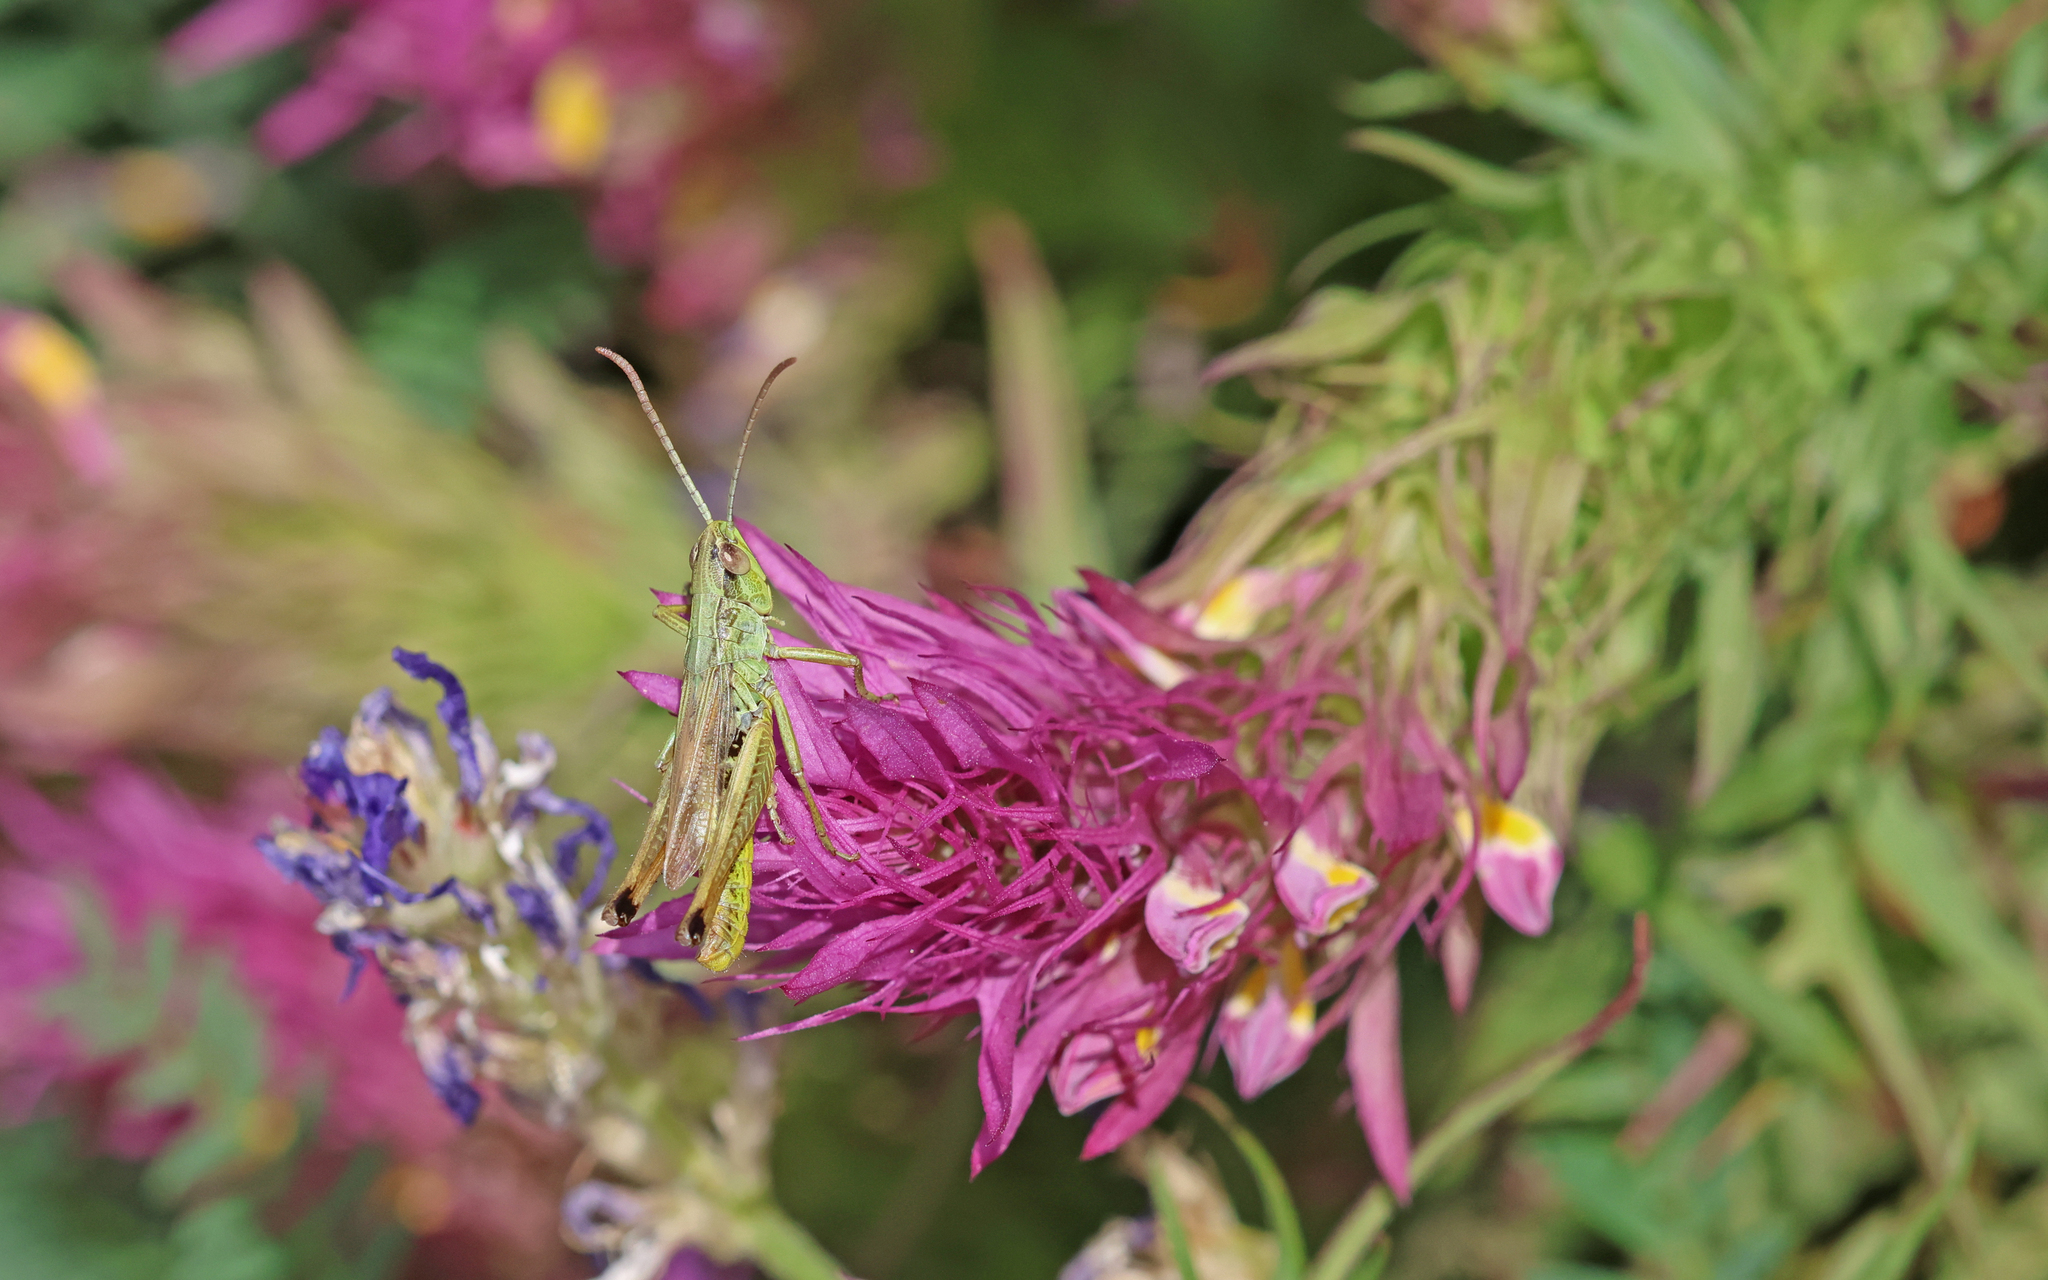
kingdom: Animalia
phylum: Arthropoda
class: Insecta
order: Orthoptera
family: Acrididae
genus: Pseudochorthippus
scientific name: Pseudochorthippus parallelus
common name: Meadow grasshopper
